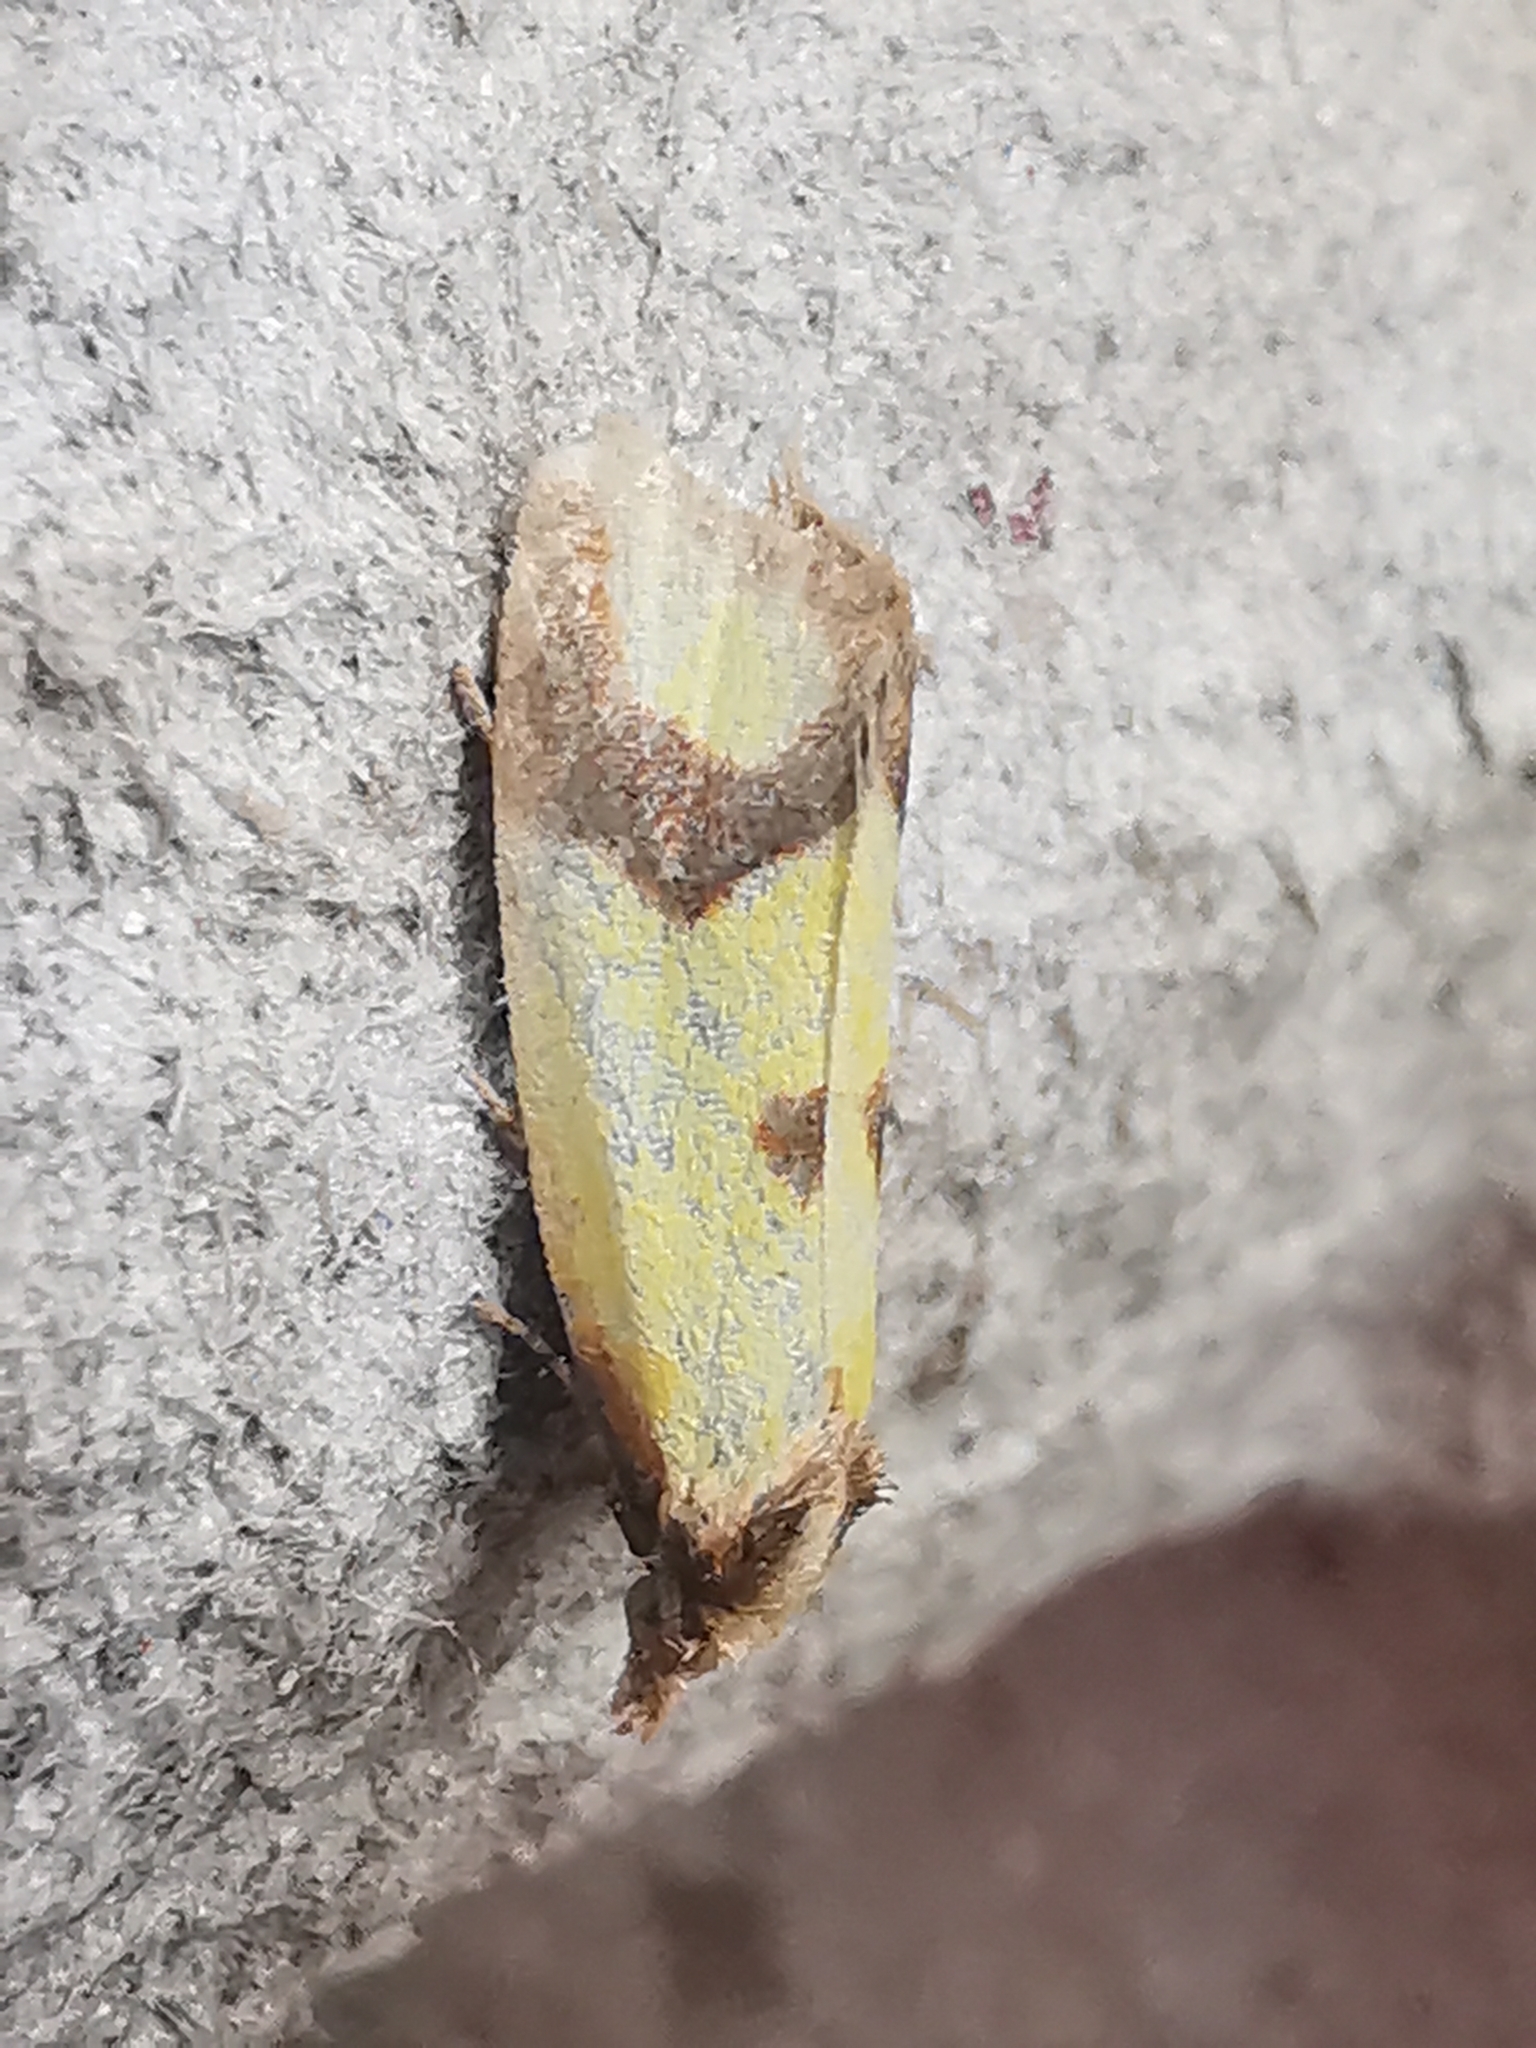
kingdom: Animalia
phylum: Arthropoda
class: Insecta
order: Lepidoptera
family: Tortricidae
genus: Agapeta
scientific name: Agapeta zoegana
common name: Sulfur knapweed root moth
